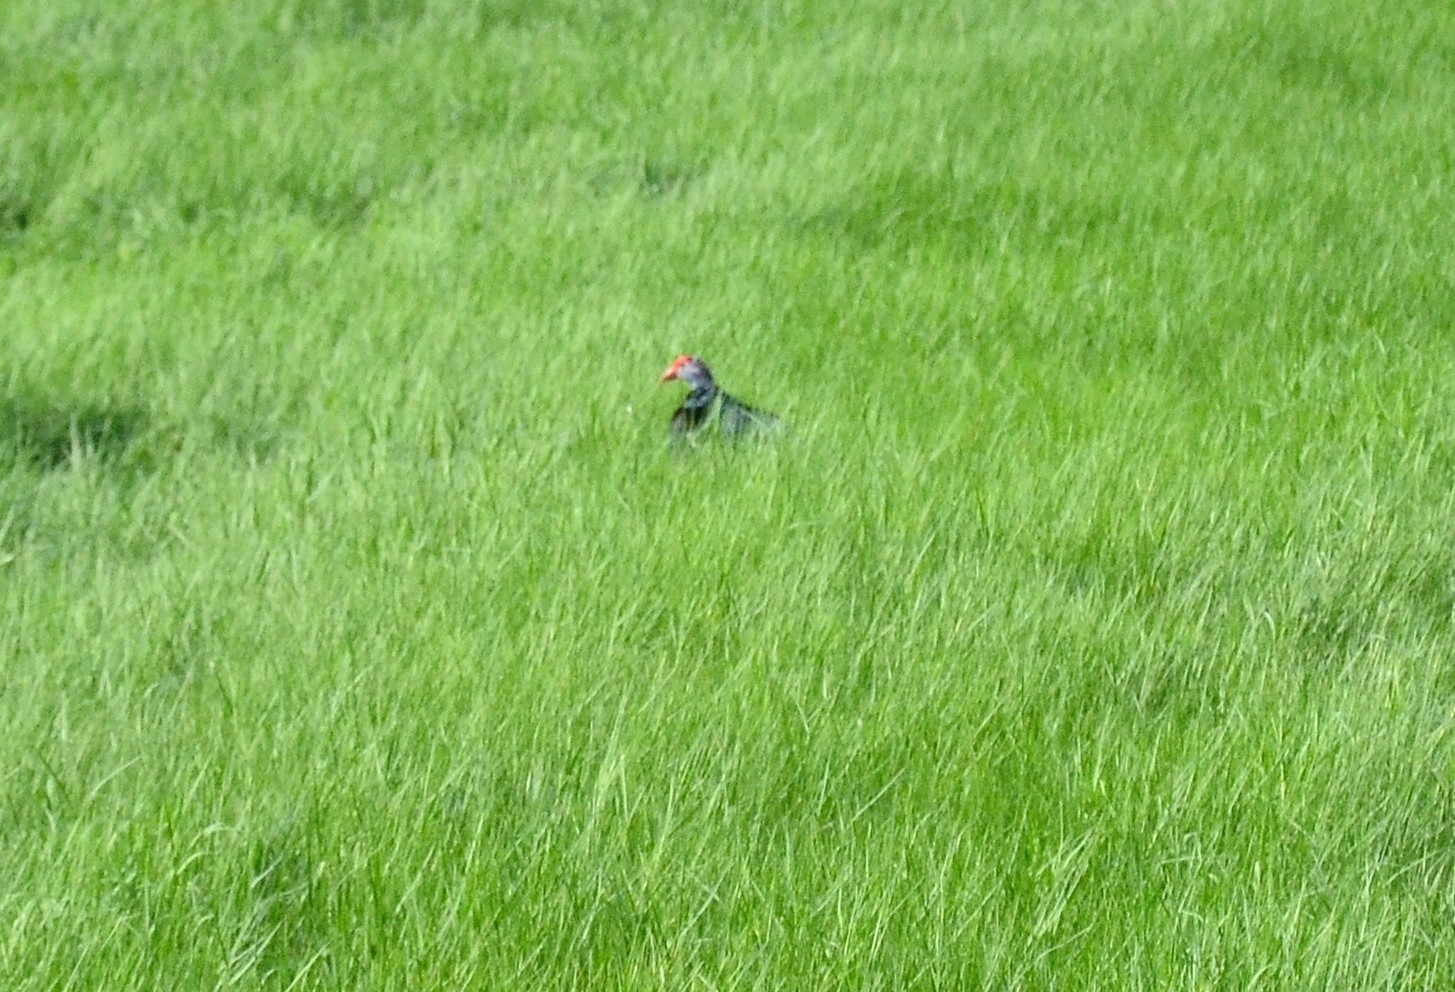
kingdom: Animalia
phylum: Chordata
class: Aves
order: Gruiformes
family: Rallidae
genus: Porphyrio
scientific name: Porphyrio porphyrio
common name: Purple swamphen
